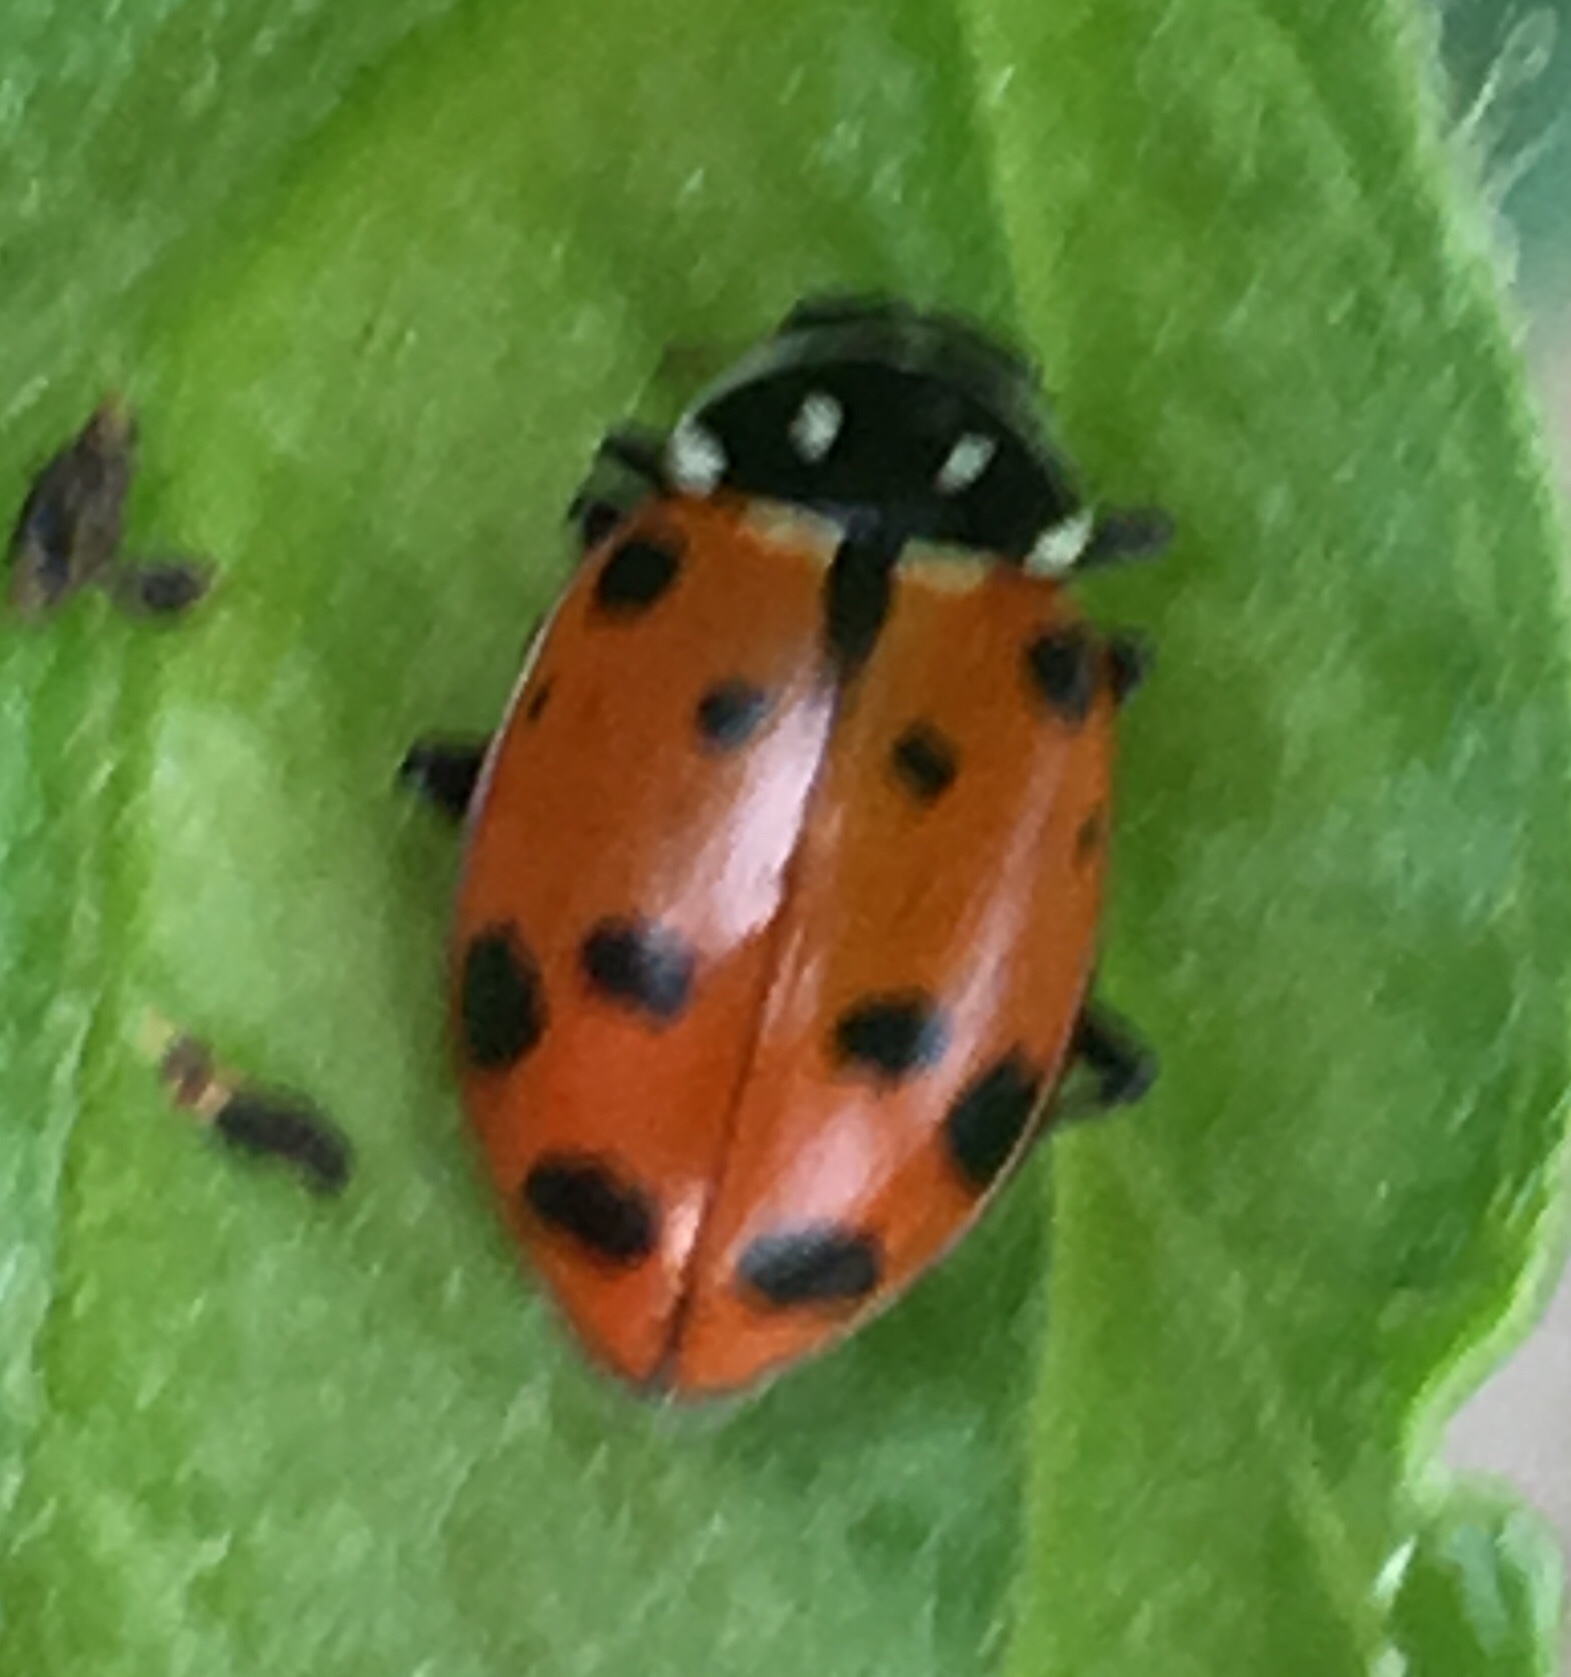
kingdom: Animalia
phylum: Arthropoda
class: Insecta
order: Coleoptera
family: Coccinellidae
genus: Hippodamia
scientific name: Hippodamia convergens
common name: Convergent lady beetle
